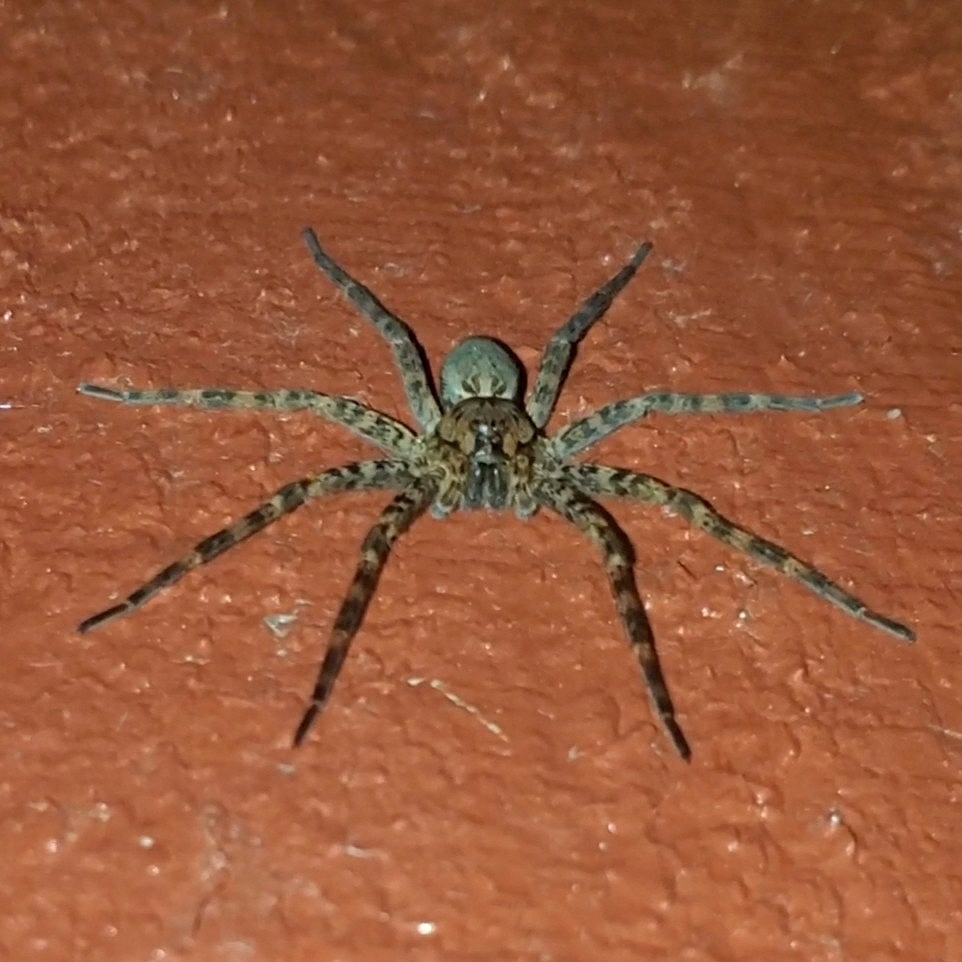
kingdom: Animalia
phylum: Arthropoda
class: Arachnida
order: Araneae
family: Pisauridae
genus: Dolomedes
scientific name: Dolomedes tenebrosus
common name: Dark fishing spider
